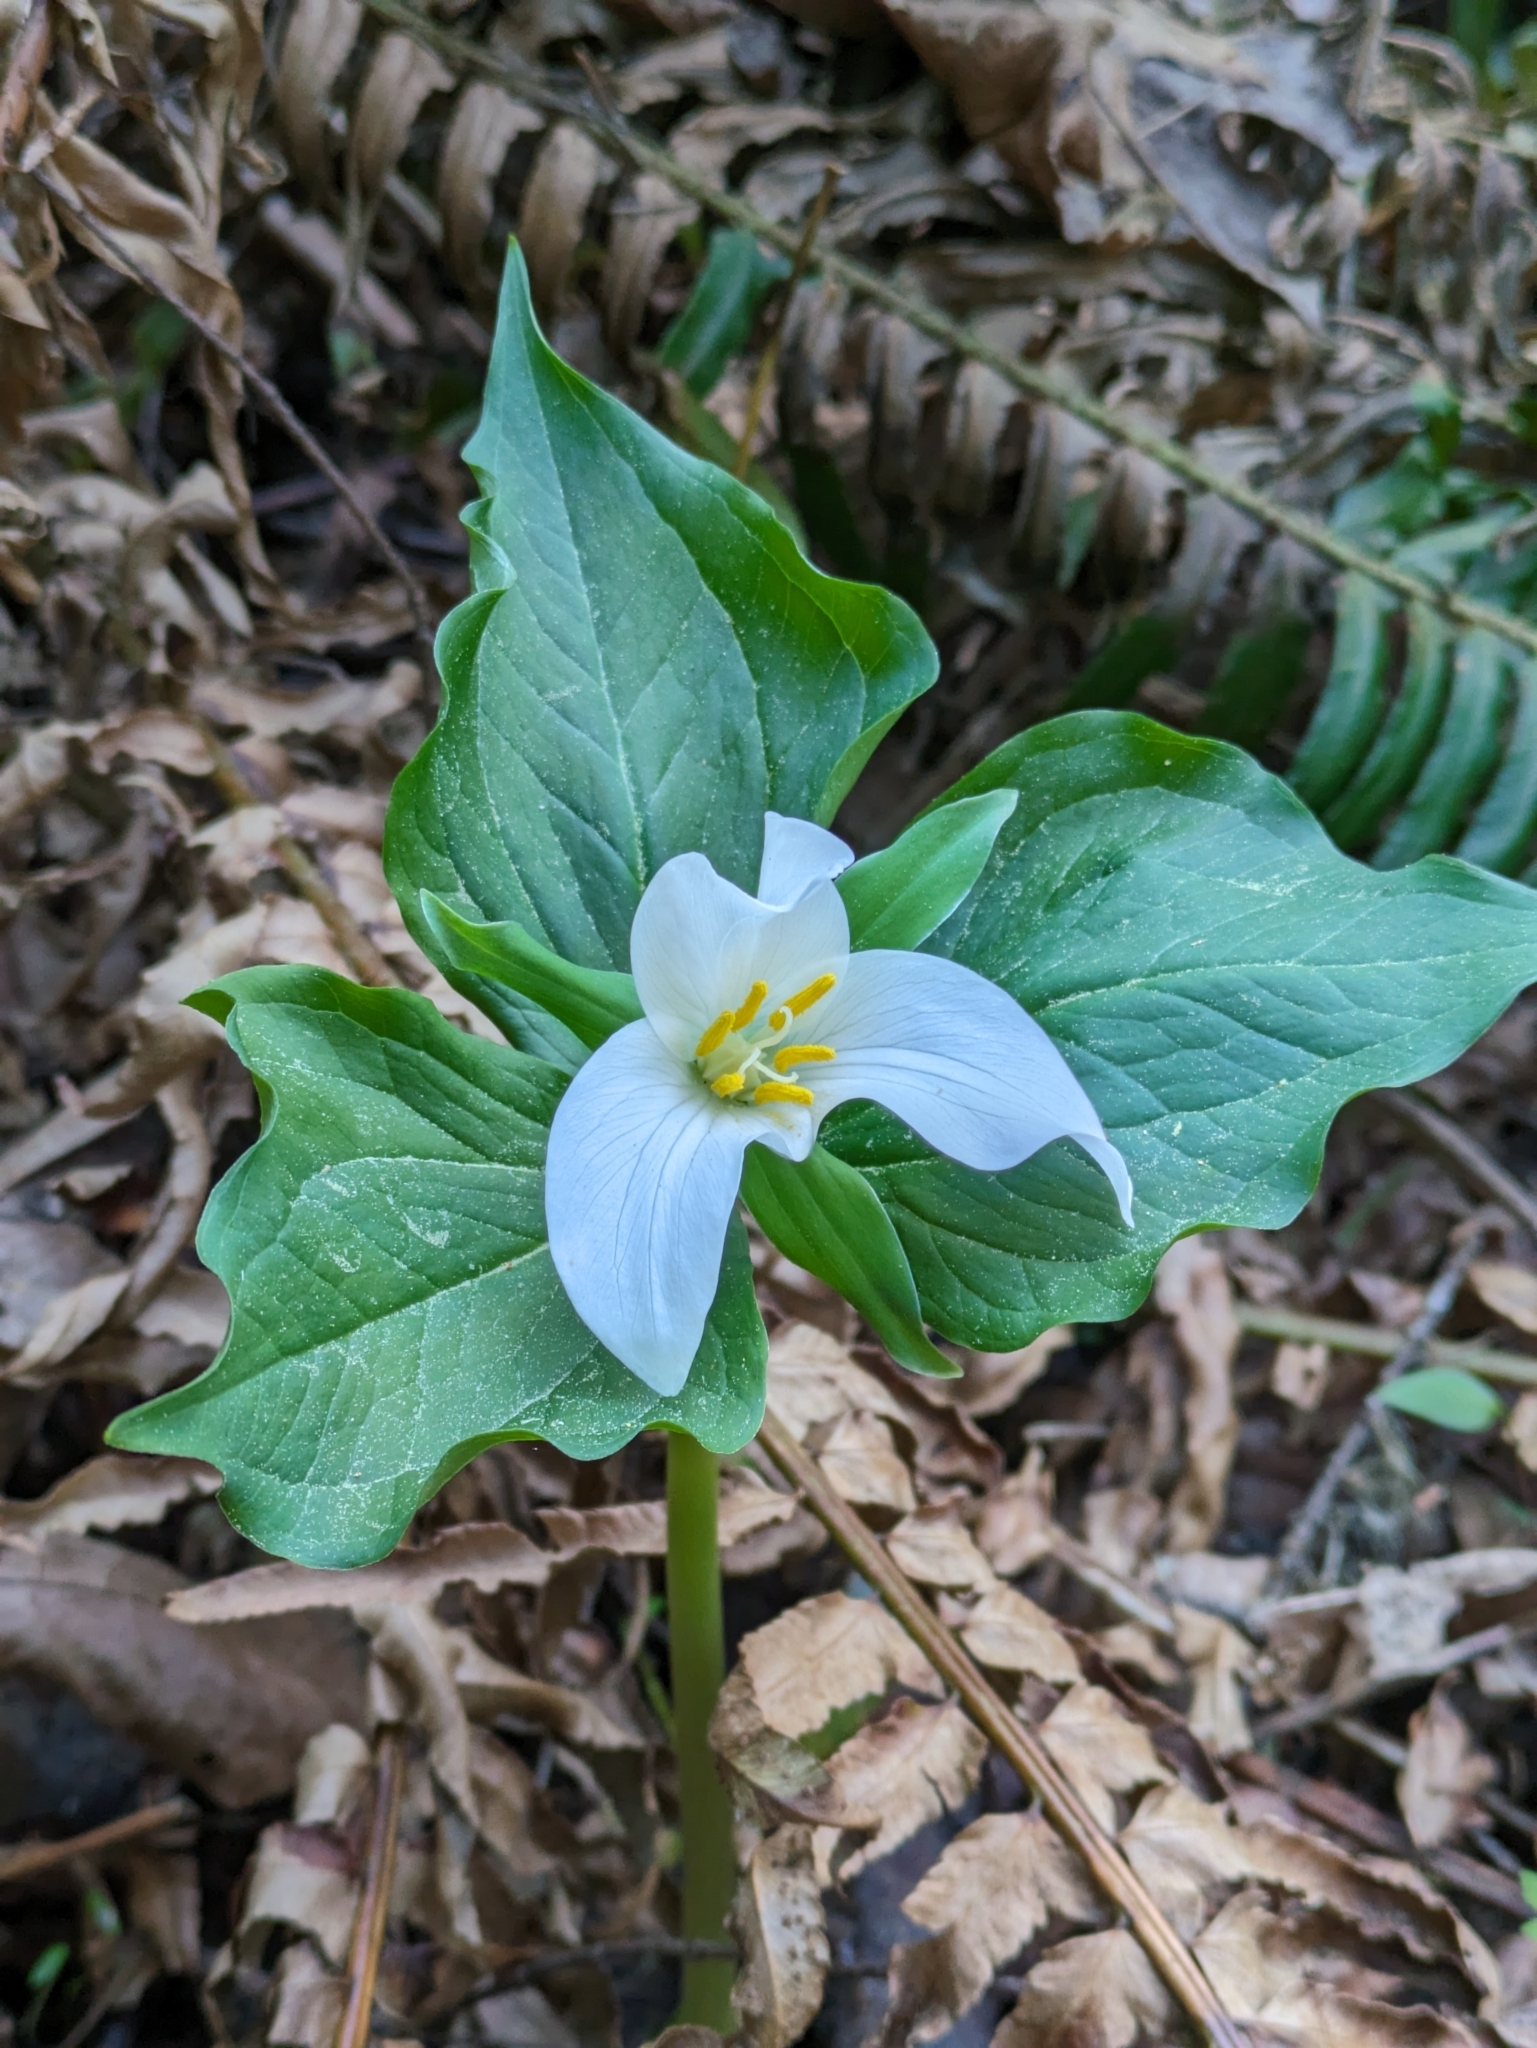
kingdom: Plantae
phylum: Tracheophyta
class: Liliopsida
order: Liliales
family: Melanthiaceae
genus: Trillium
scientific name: Trillium ovatum
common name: Pacific trillium
